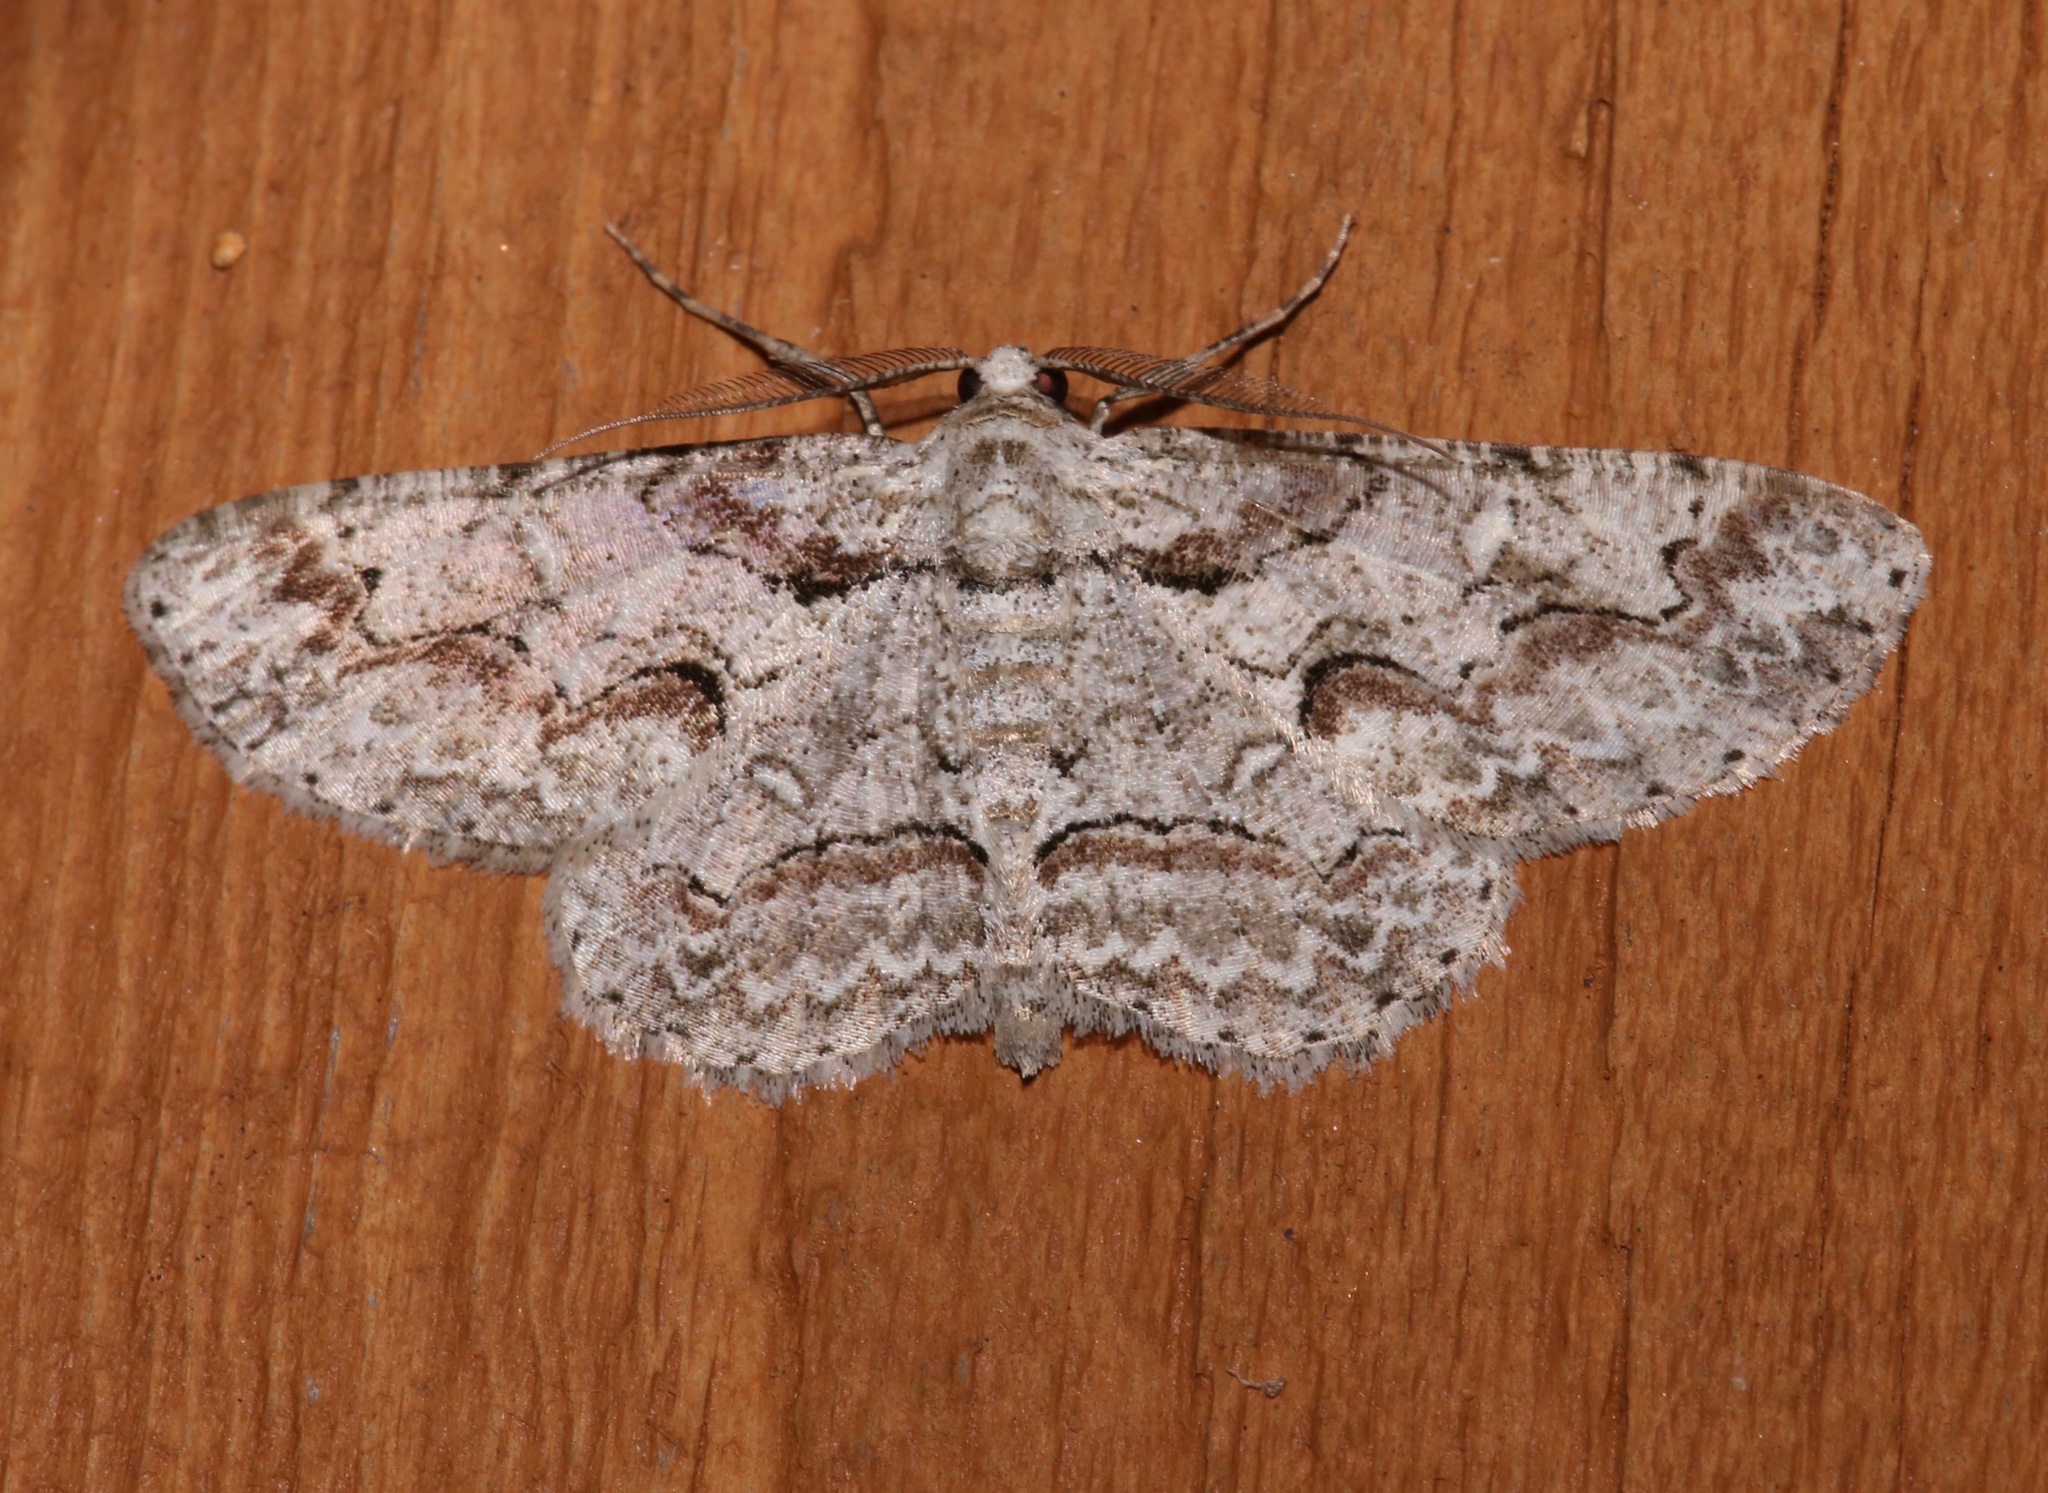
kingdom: Animalia
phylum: Arthropoda
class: Insecta
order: Lepidoptera
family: Geometridae
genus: Iridopsis
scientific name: Iridopsis defectaria
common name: Brown-shaded gray
